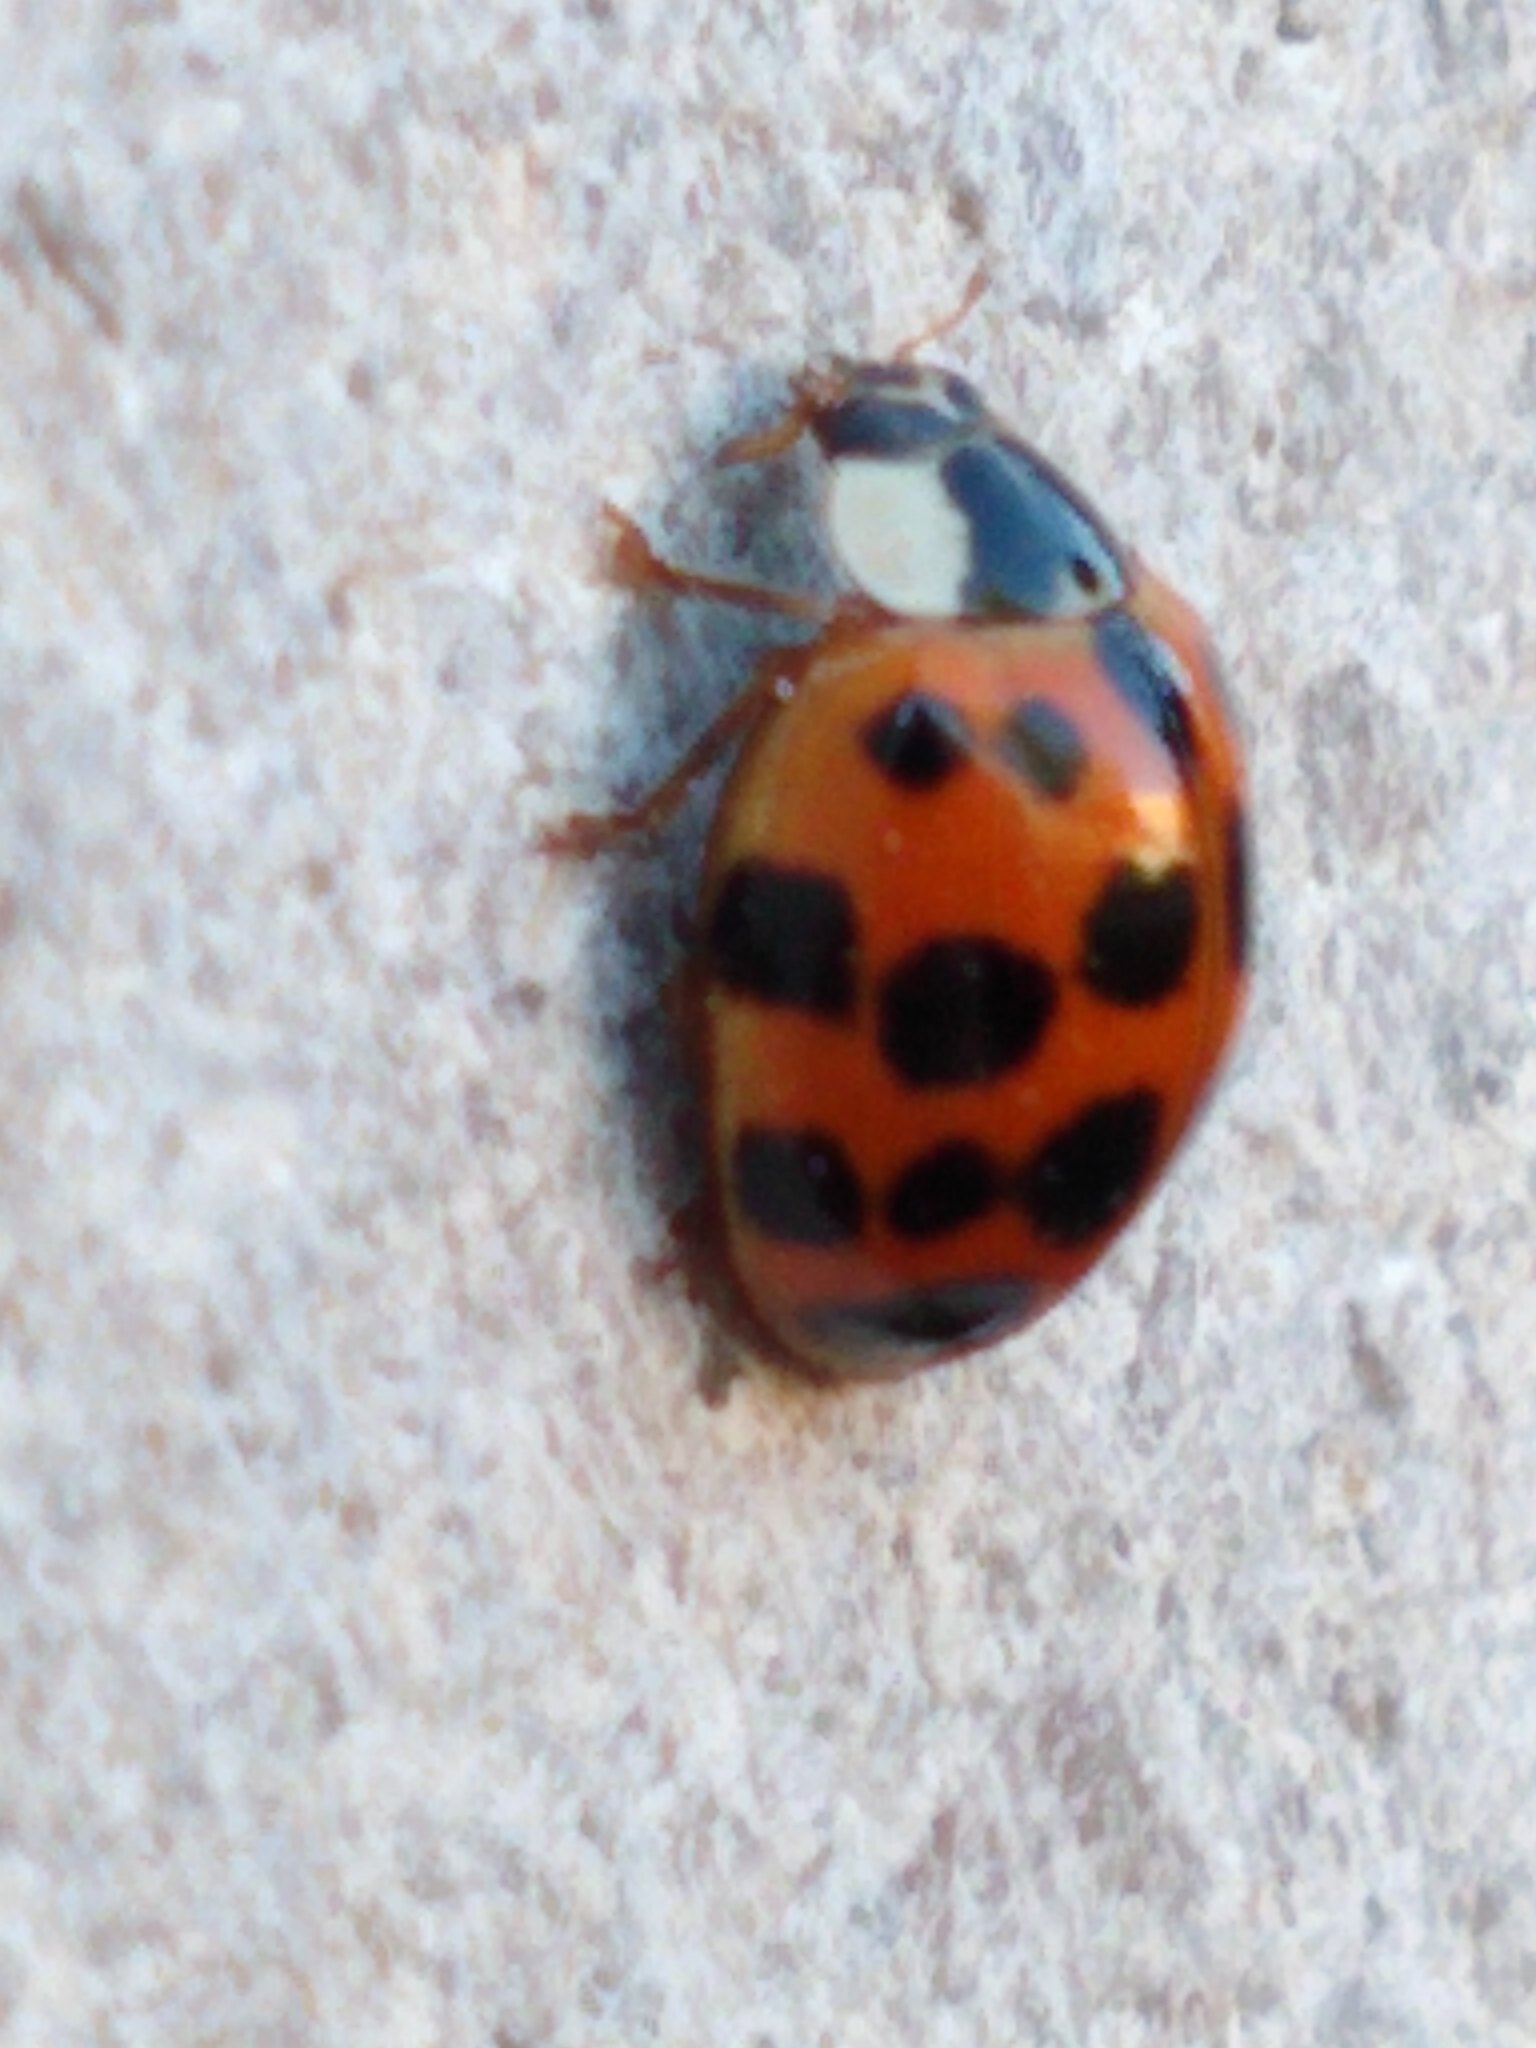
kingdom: Animalia
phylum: Arthropoda
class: Insecta
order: Coleoptera
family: Coccinellidae
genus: Harmonia
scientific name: Harmonia axyridis
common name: Harlequin ladybird
